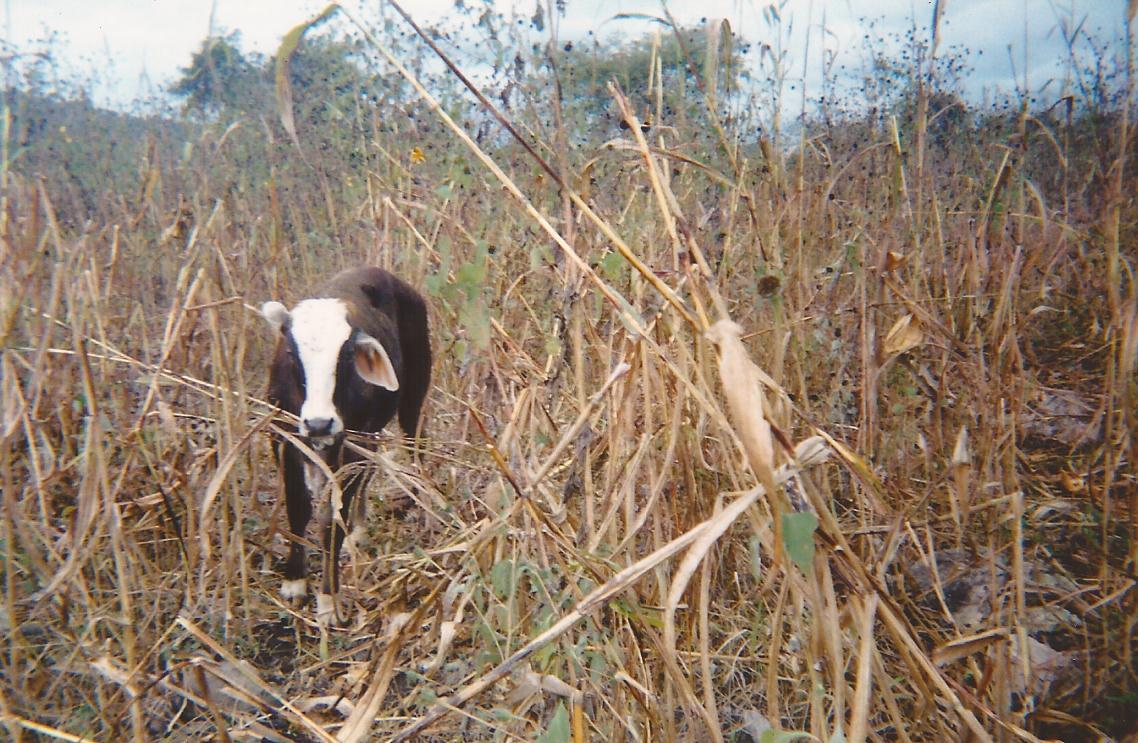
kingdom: Animalia
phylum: Chordata
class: Mammalia
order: Artiodactyla
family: Bovidae
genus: Bos
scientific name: Bos taurus
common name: Domesticated cattle
